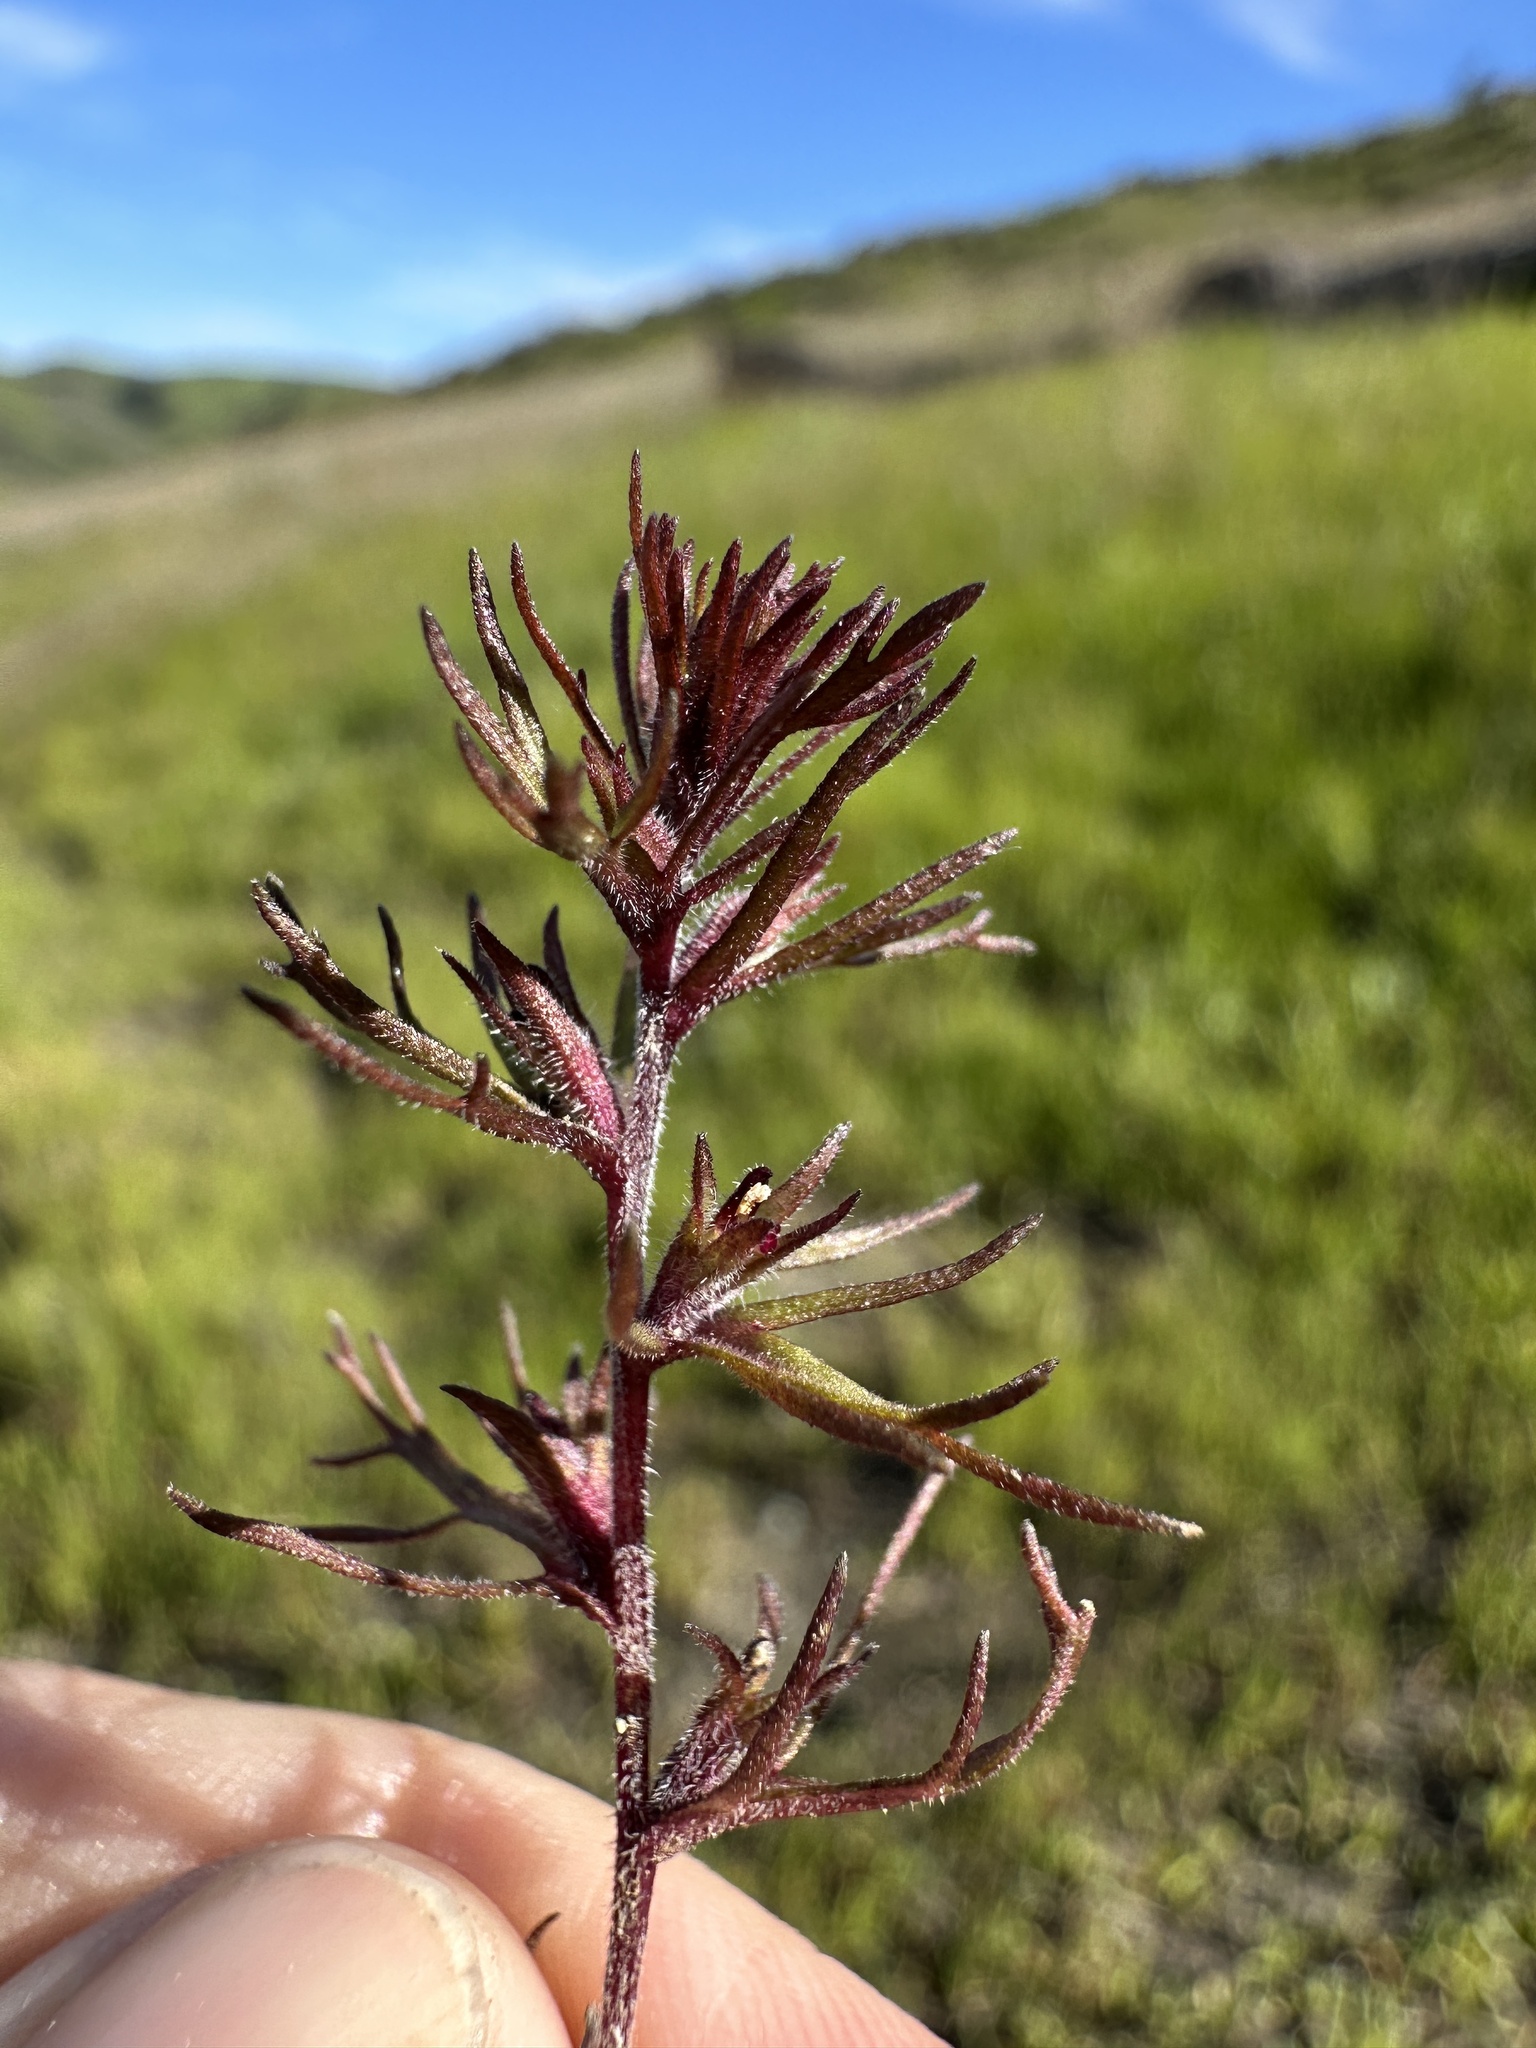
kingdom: Plantae
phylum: Tracheophyta
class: Magnoliopsida
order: Lamiales
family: Orobanchaceae
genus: Triphysaria
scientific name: Triphysaria pusilla
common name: Dwarf false owl-clover
